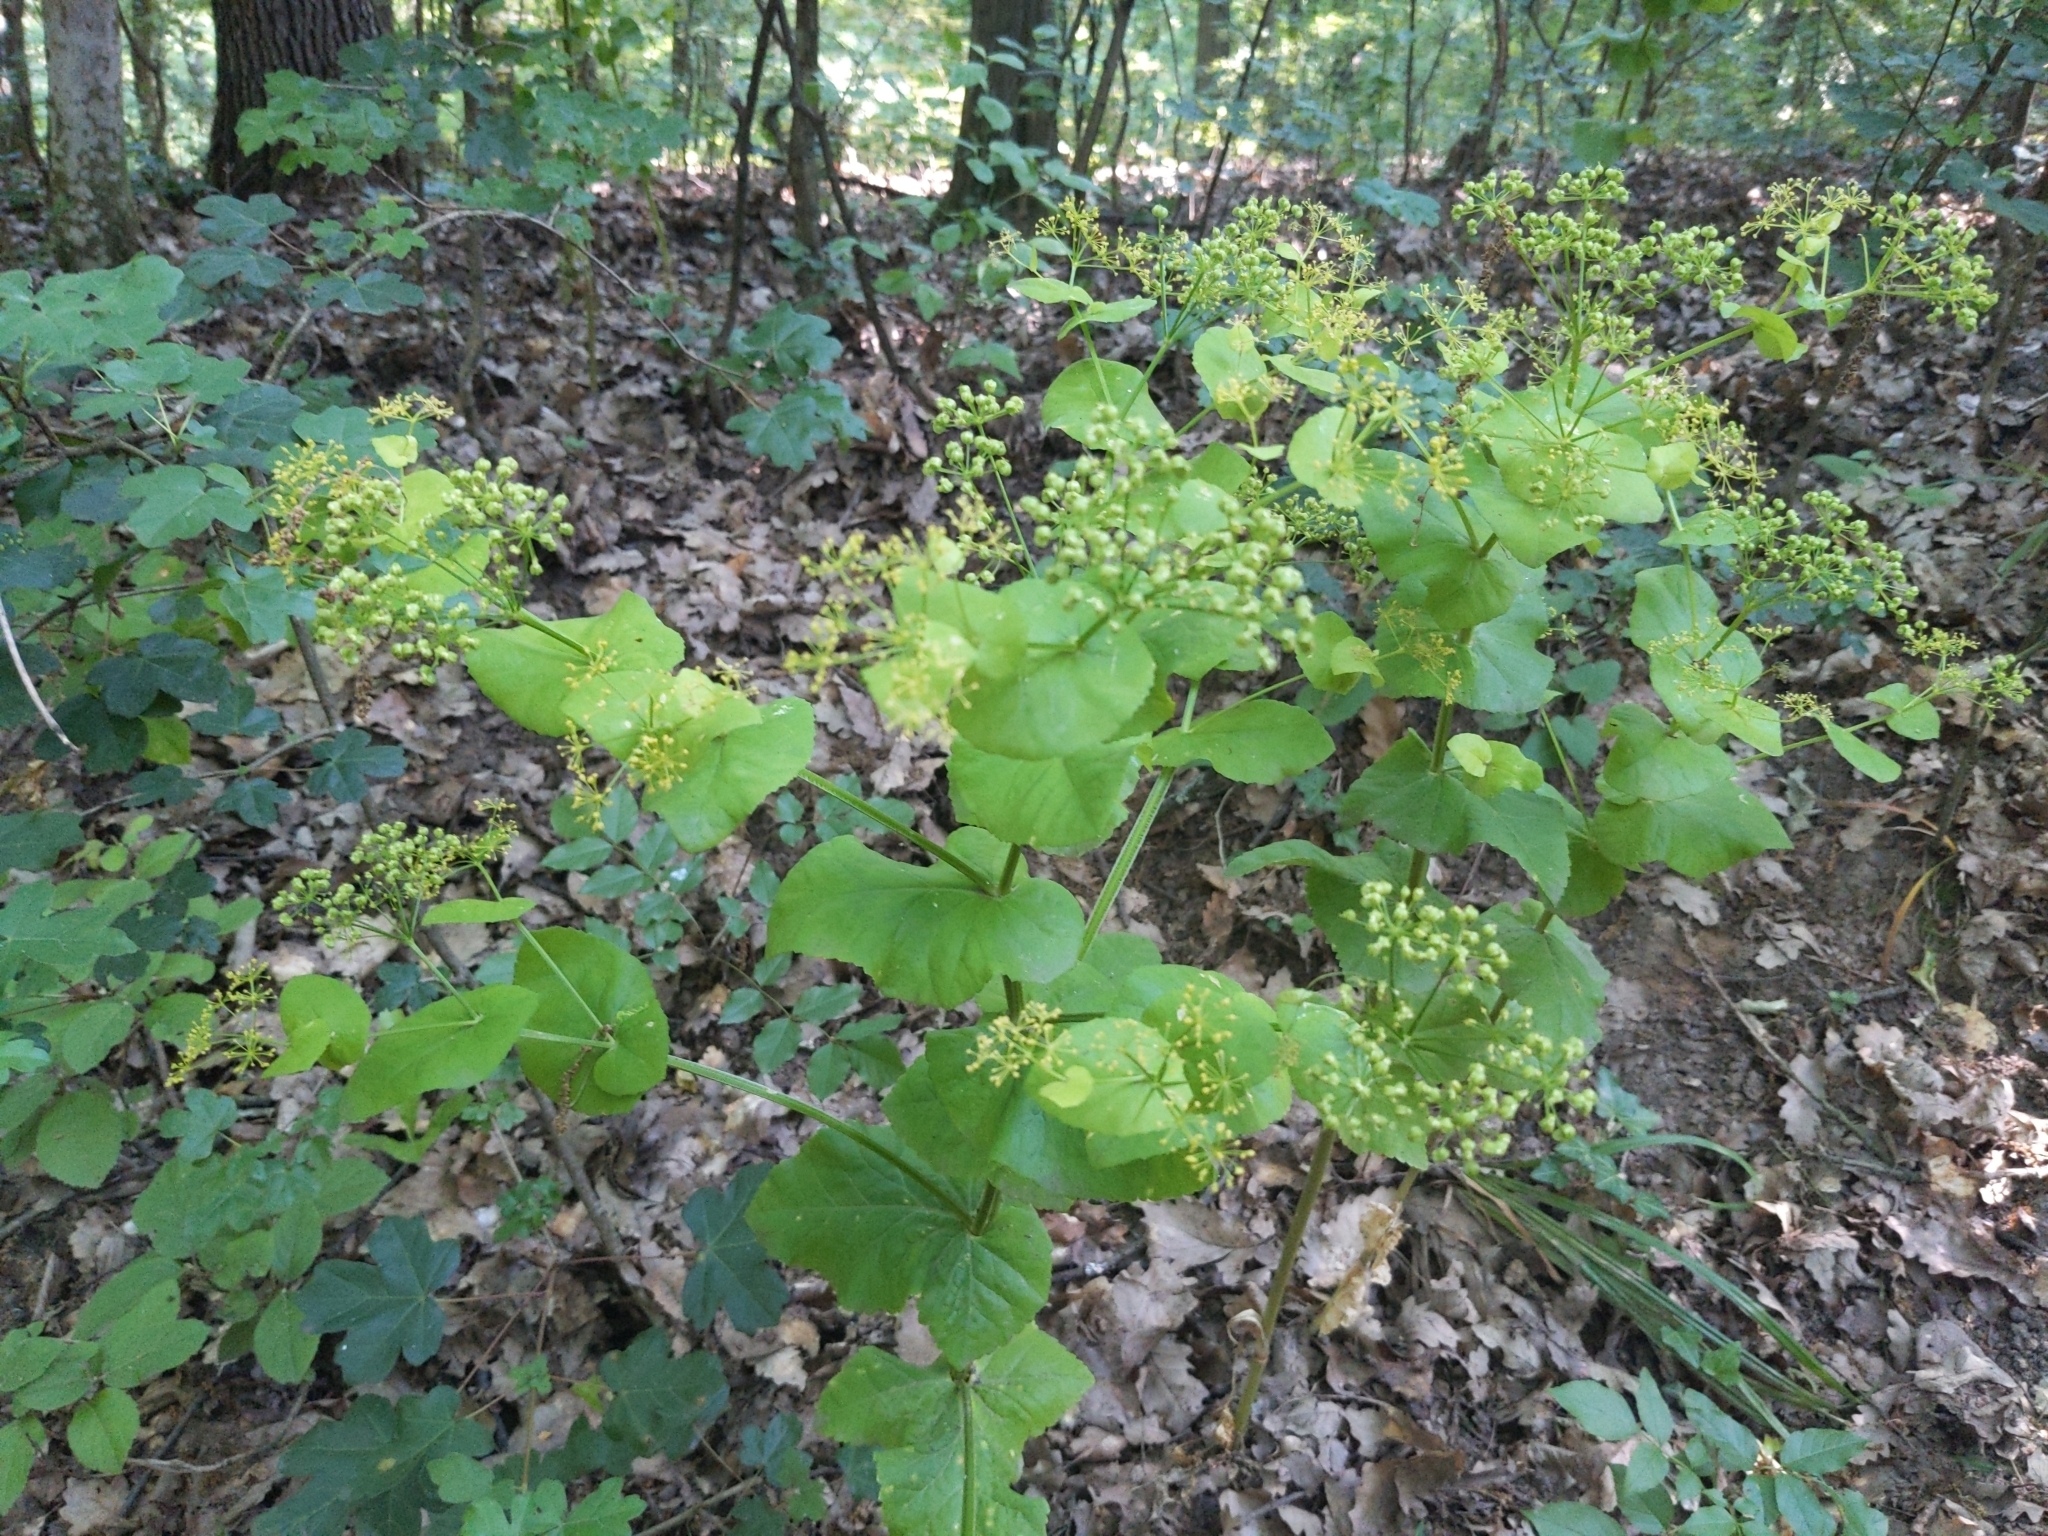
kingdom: Plantae
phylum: Tracheophyta
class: Magnoliopsida
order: Apiales
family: Apiaceae
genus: Smyrnium
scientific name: Smyrnium perfoliatum
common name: Perfoliate alexanders
